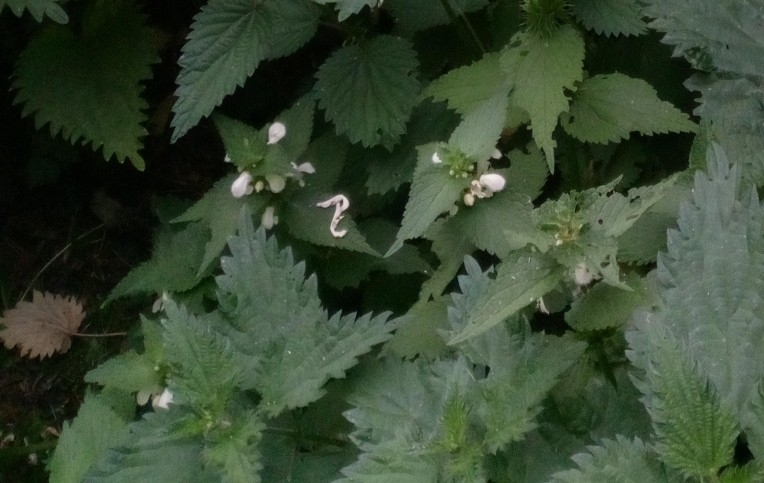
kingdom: Plantae
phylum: Tracheophyta
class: Magnoliopsida
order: Lamiales
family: Lamiaceae
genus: Lamium
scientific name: Lamium album
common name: White dead-nettle
